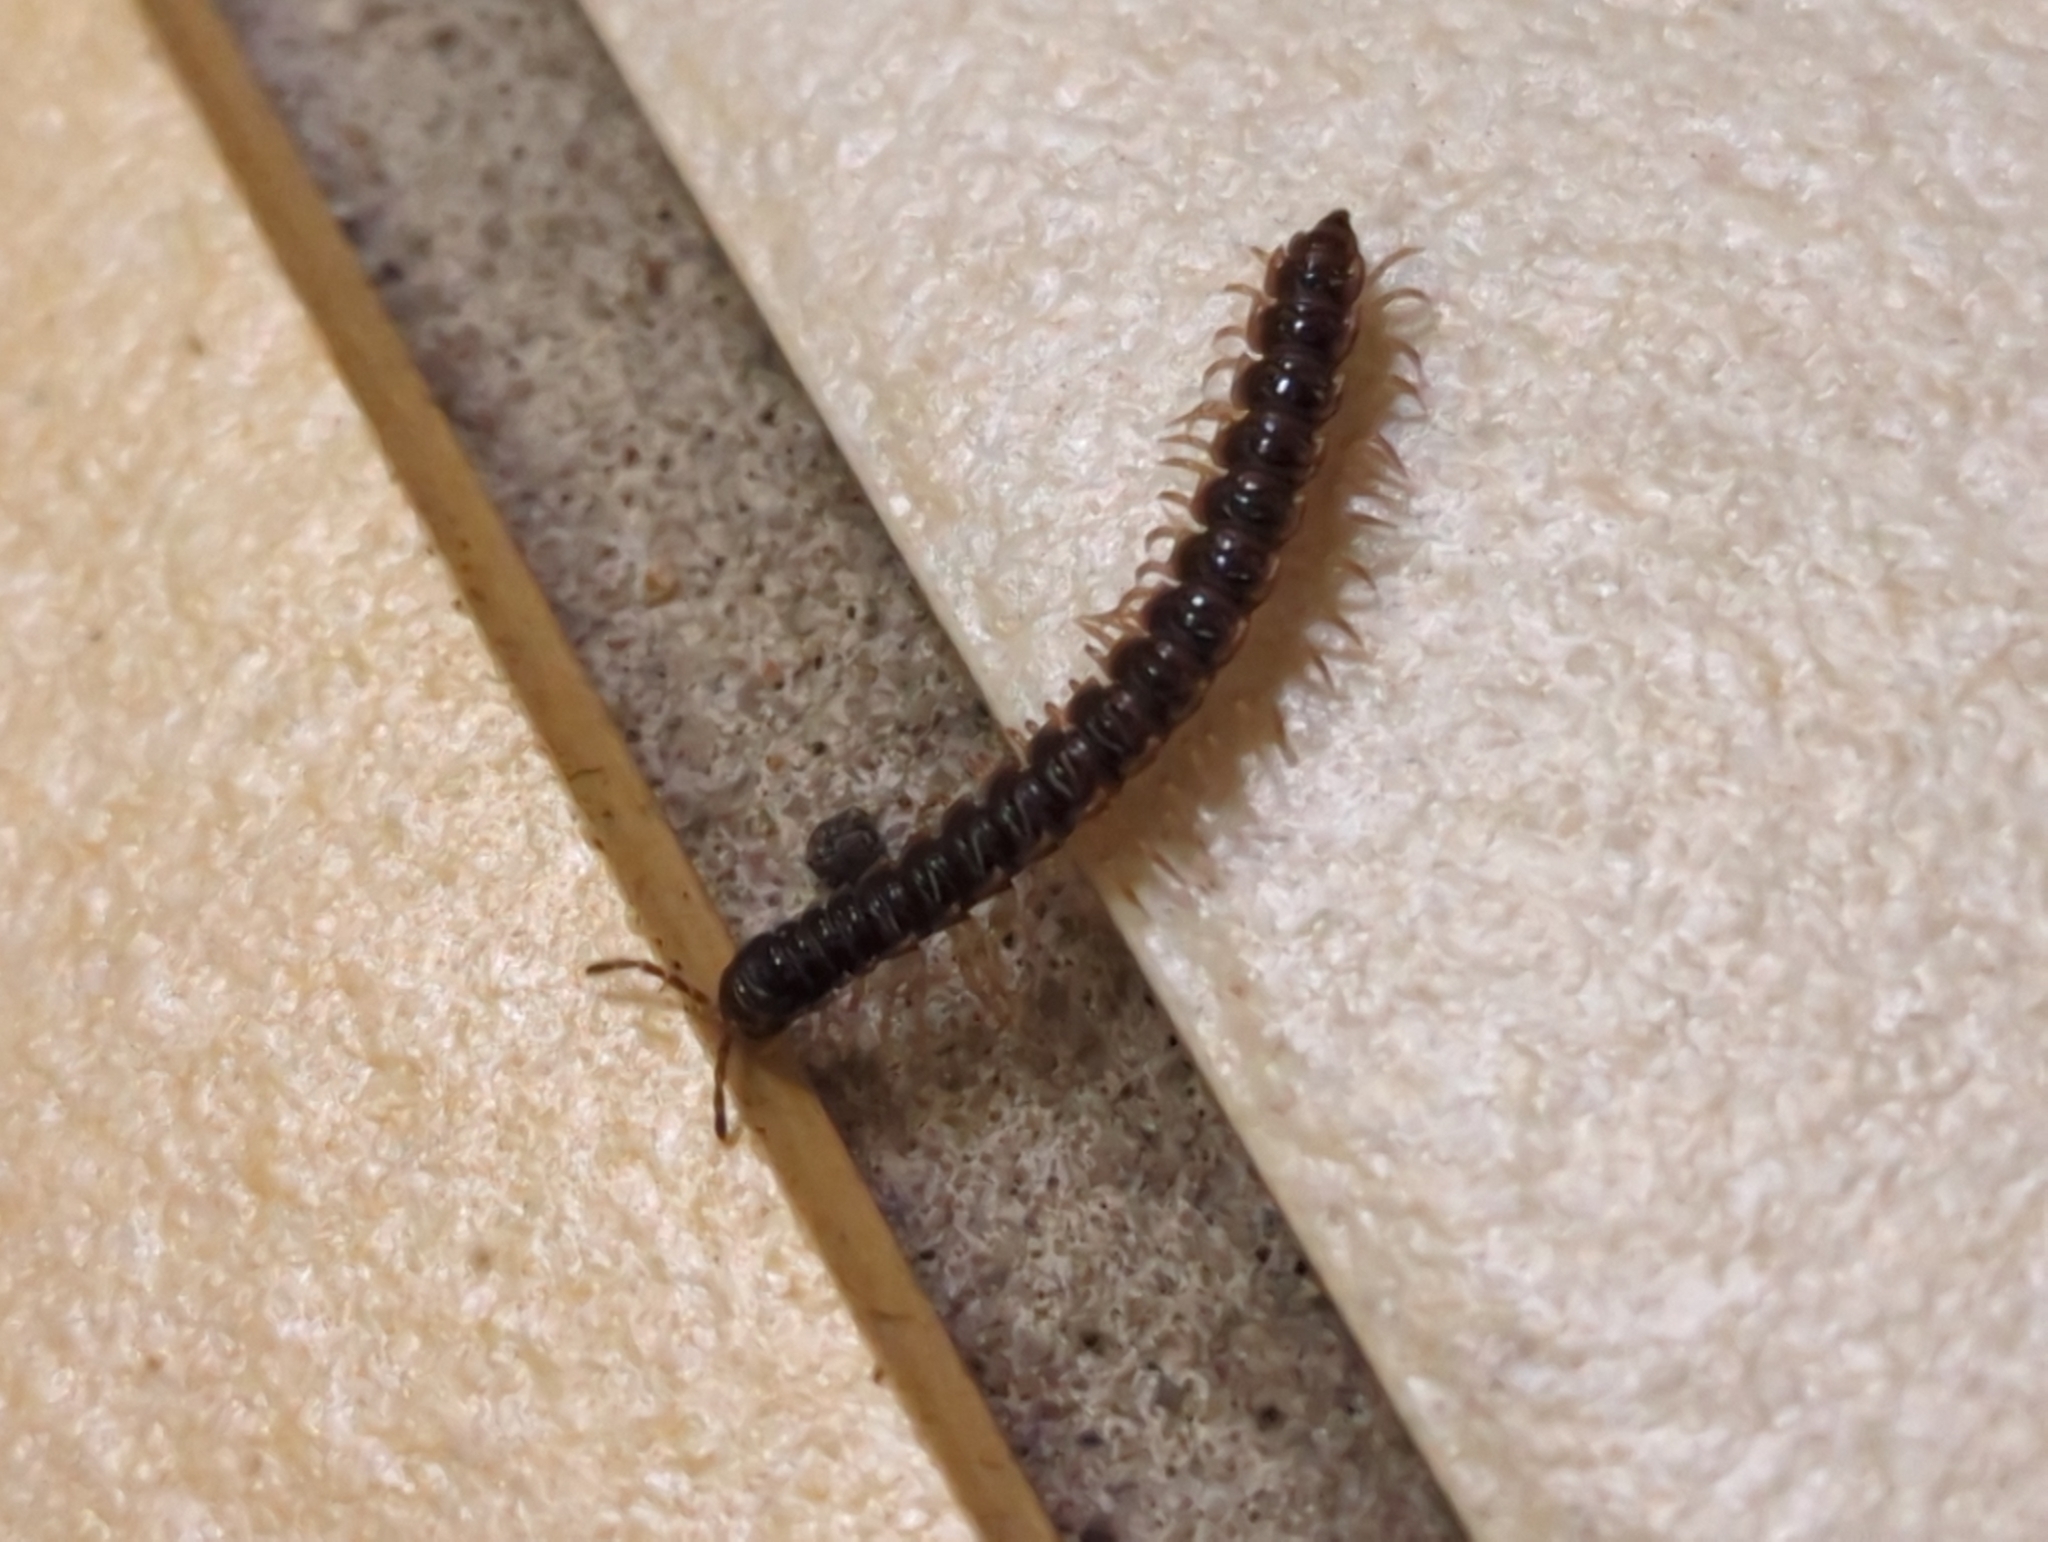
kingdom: Animalia
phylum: Arthropoda
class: Diplopoda
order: Polydesmida
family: Paradoxosomatidae
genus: Oxidus
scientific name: Oxidus gracilis
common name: Greenhouse millipede
